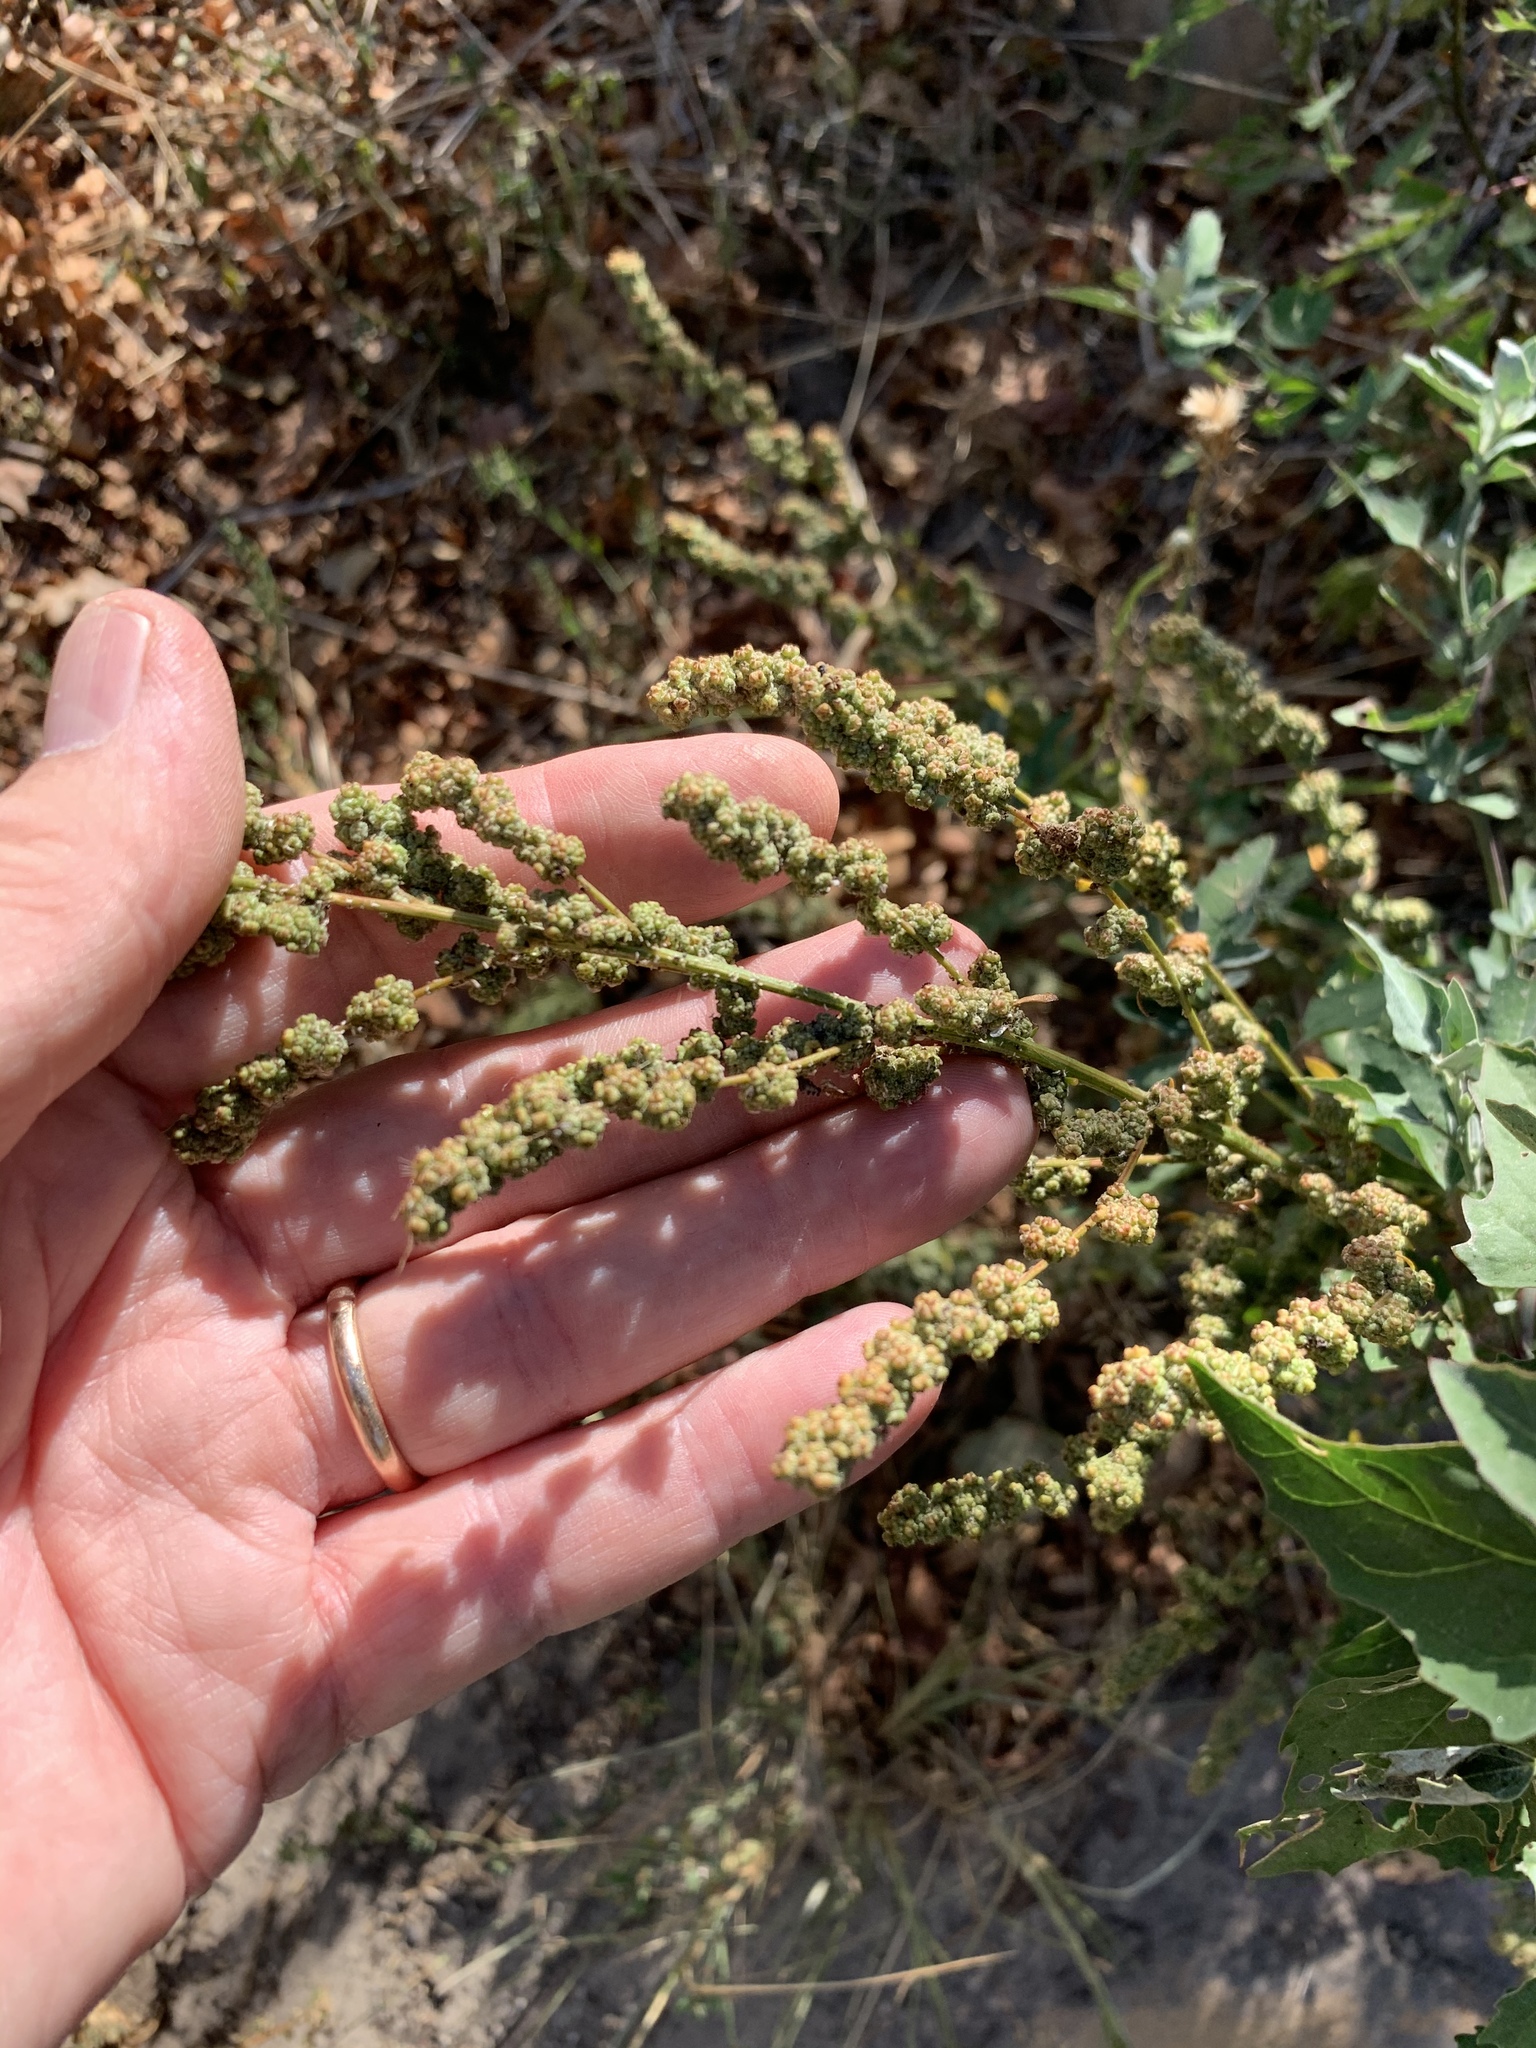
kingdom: Plantae
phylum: Tracheophyta
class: Magnoliopsida
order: Caryophyllales
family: Amaranthaceae
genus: Chenopodium
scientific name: Chenopodium album
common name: Fat-hen
